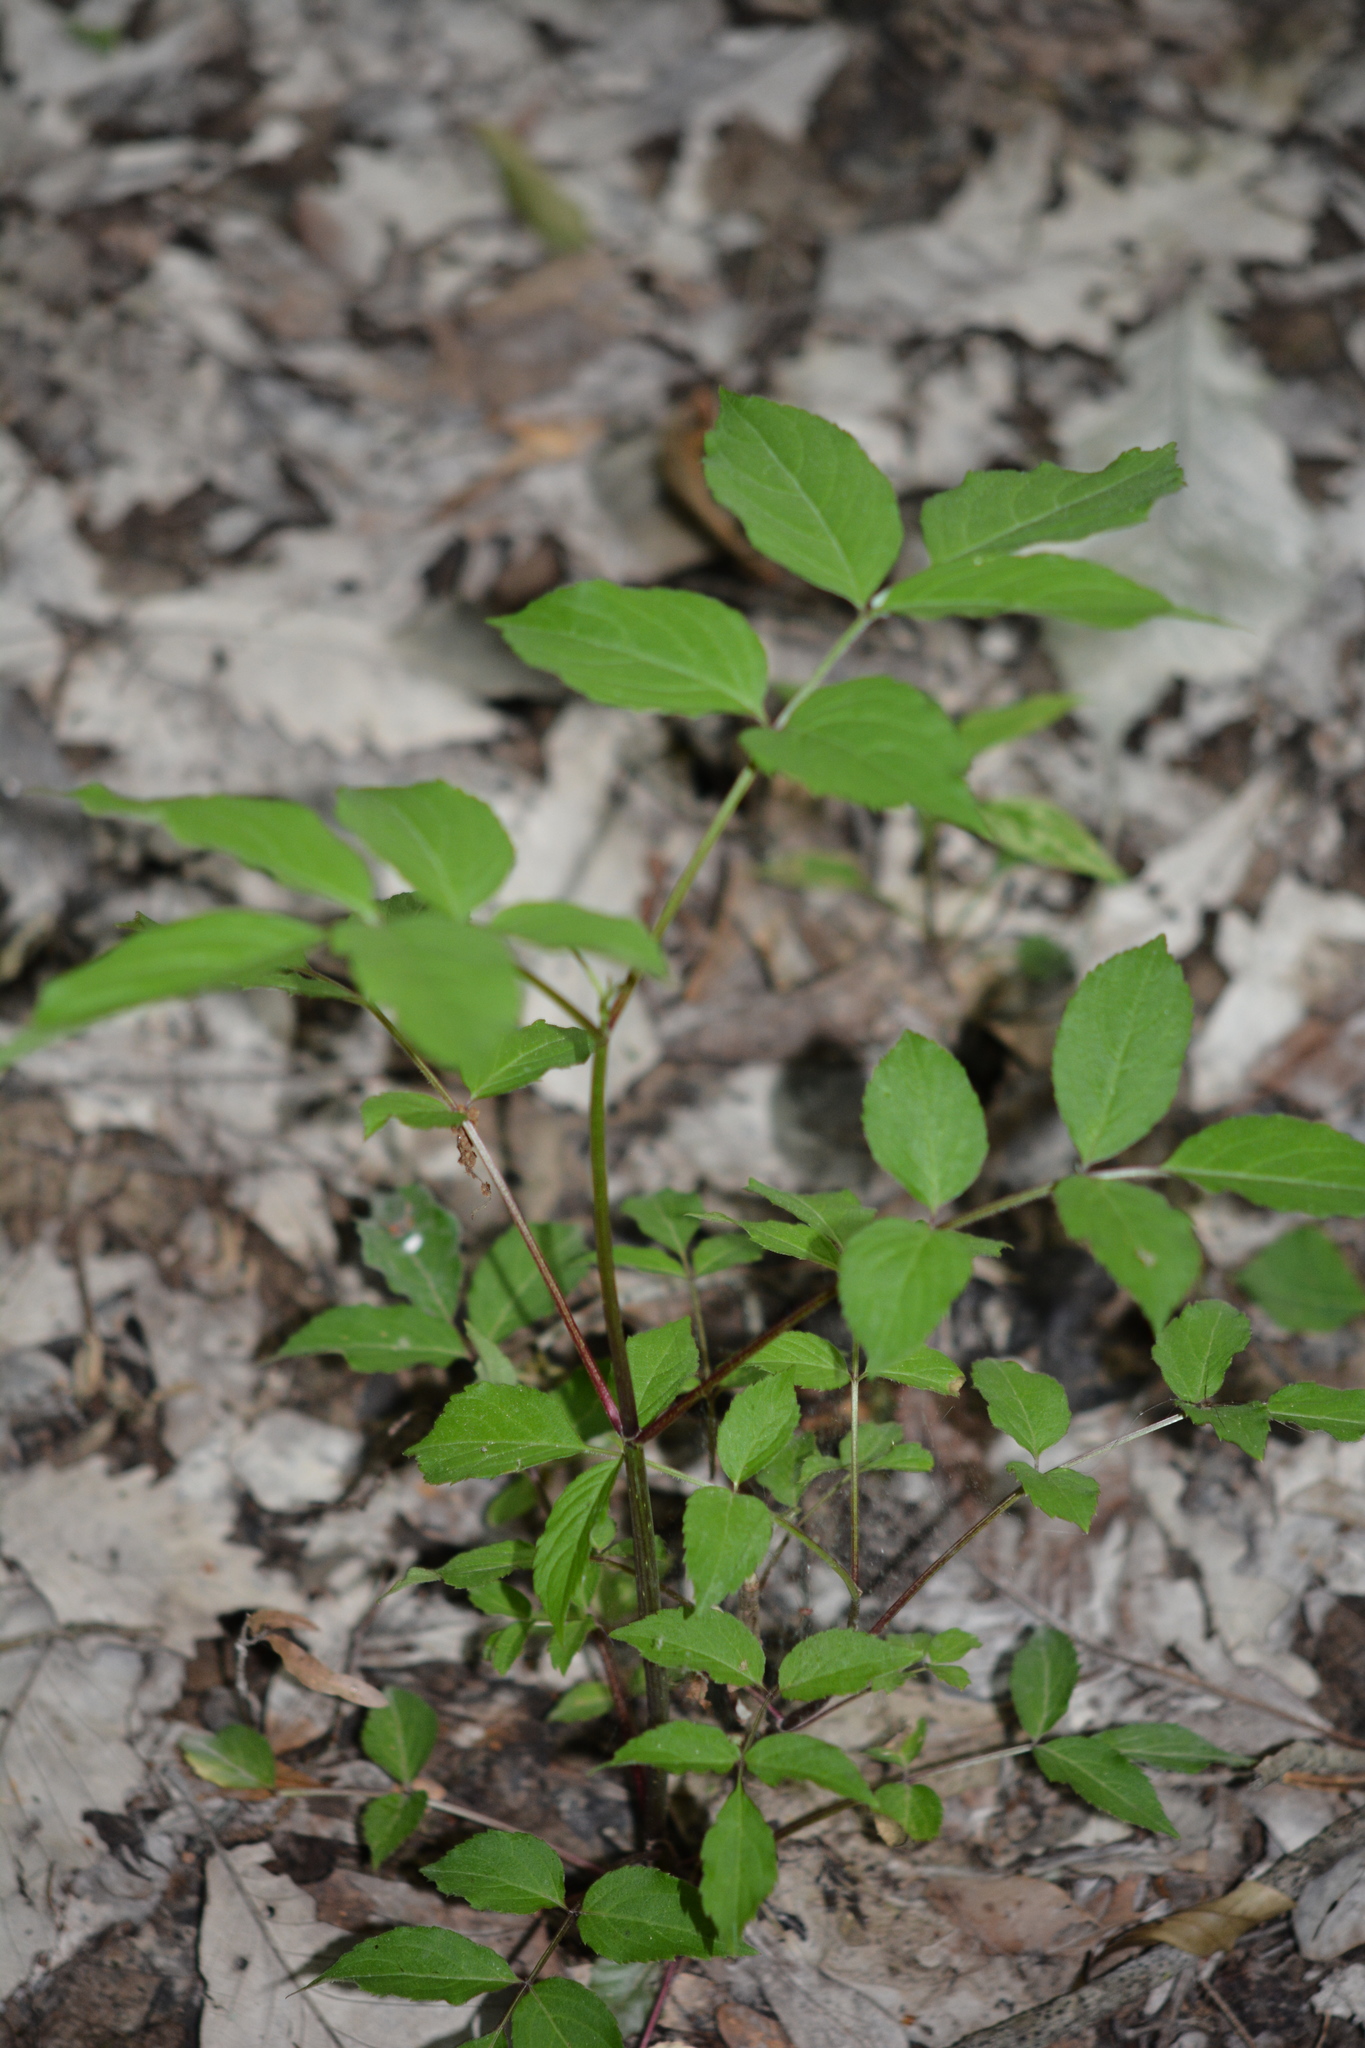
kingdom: Plantae
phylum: Tracheophyta
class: Magnoliopsida
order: Dipsacales
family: Viburnaceae
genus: Sambucus
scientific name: Sambucus canadensis
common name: American elder
